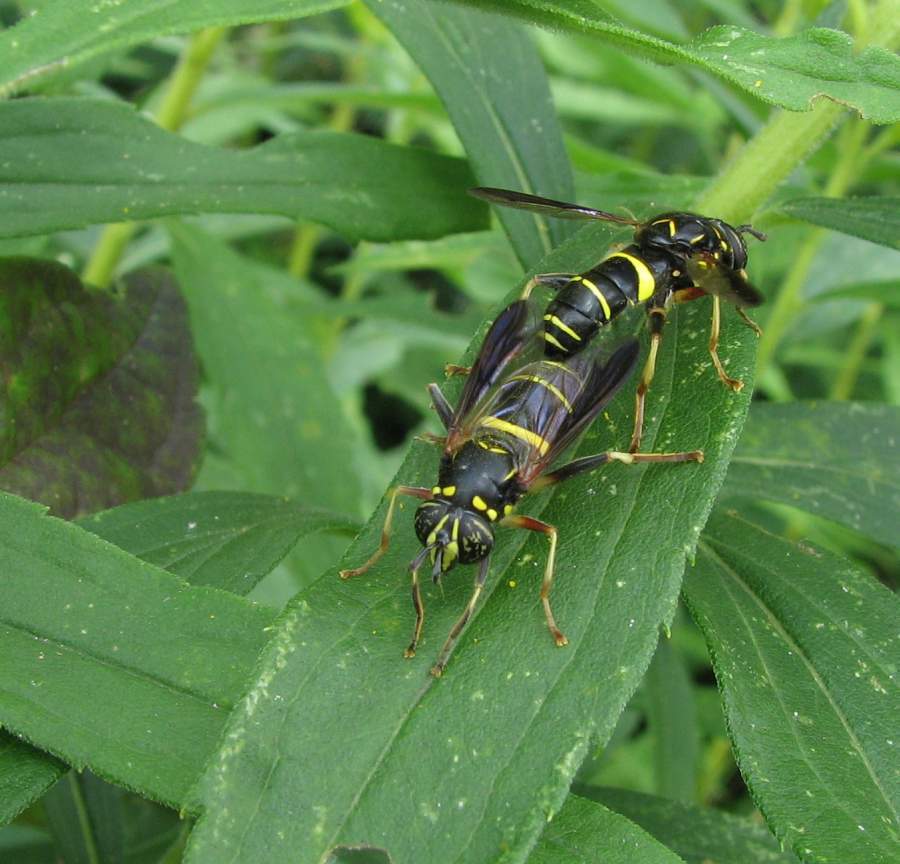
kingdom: Animalia
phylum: Arthropoda
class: Insecta
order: Diptera
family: Syrphidae
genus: Spilomyia
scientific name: Spilomyia sayi
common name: Four-lined hornet fly
